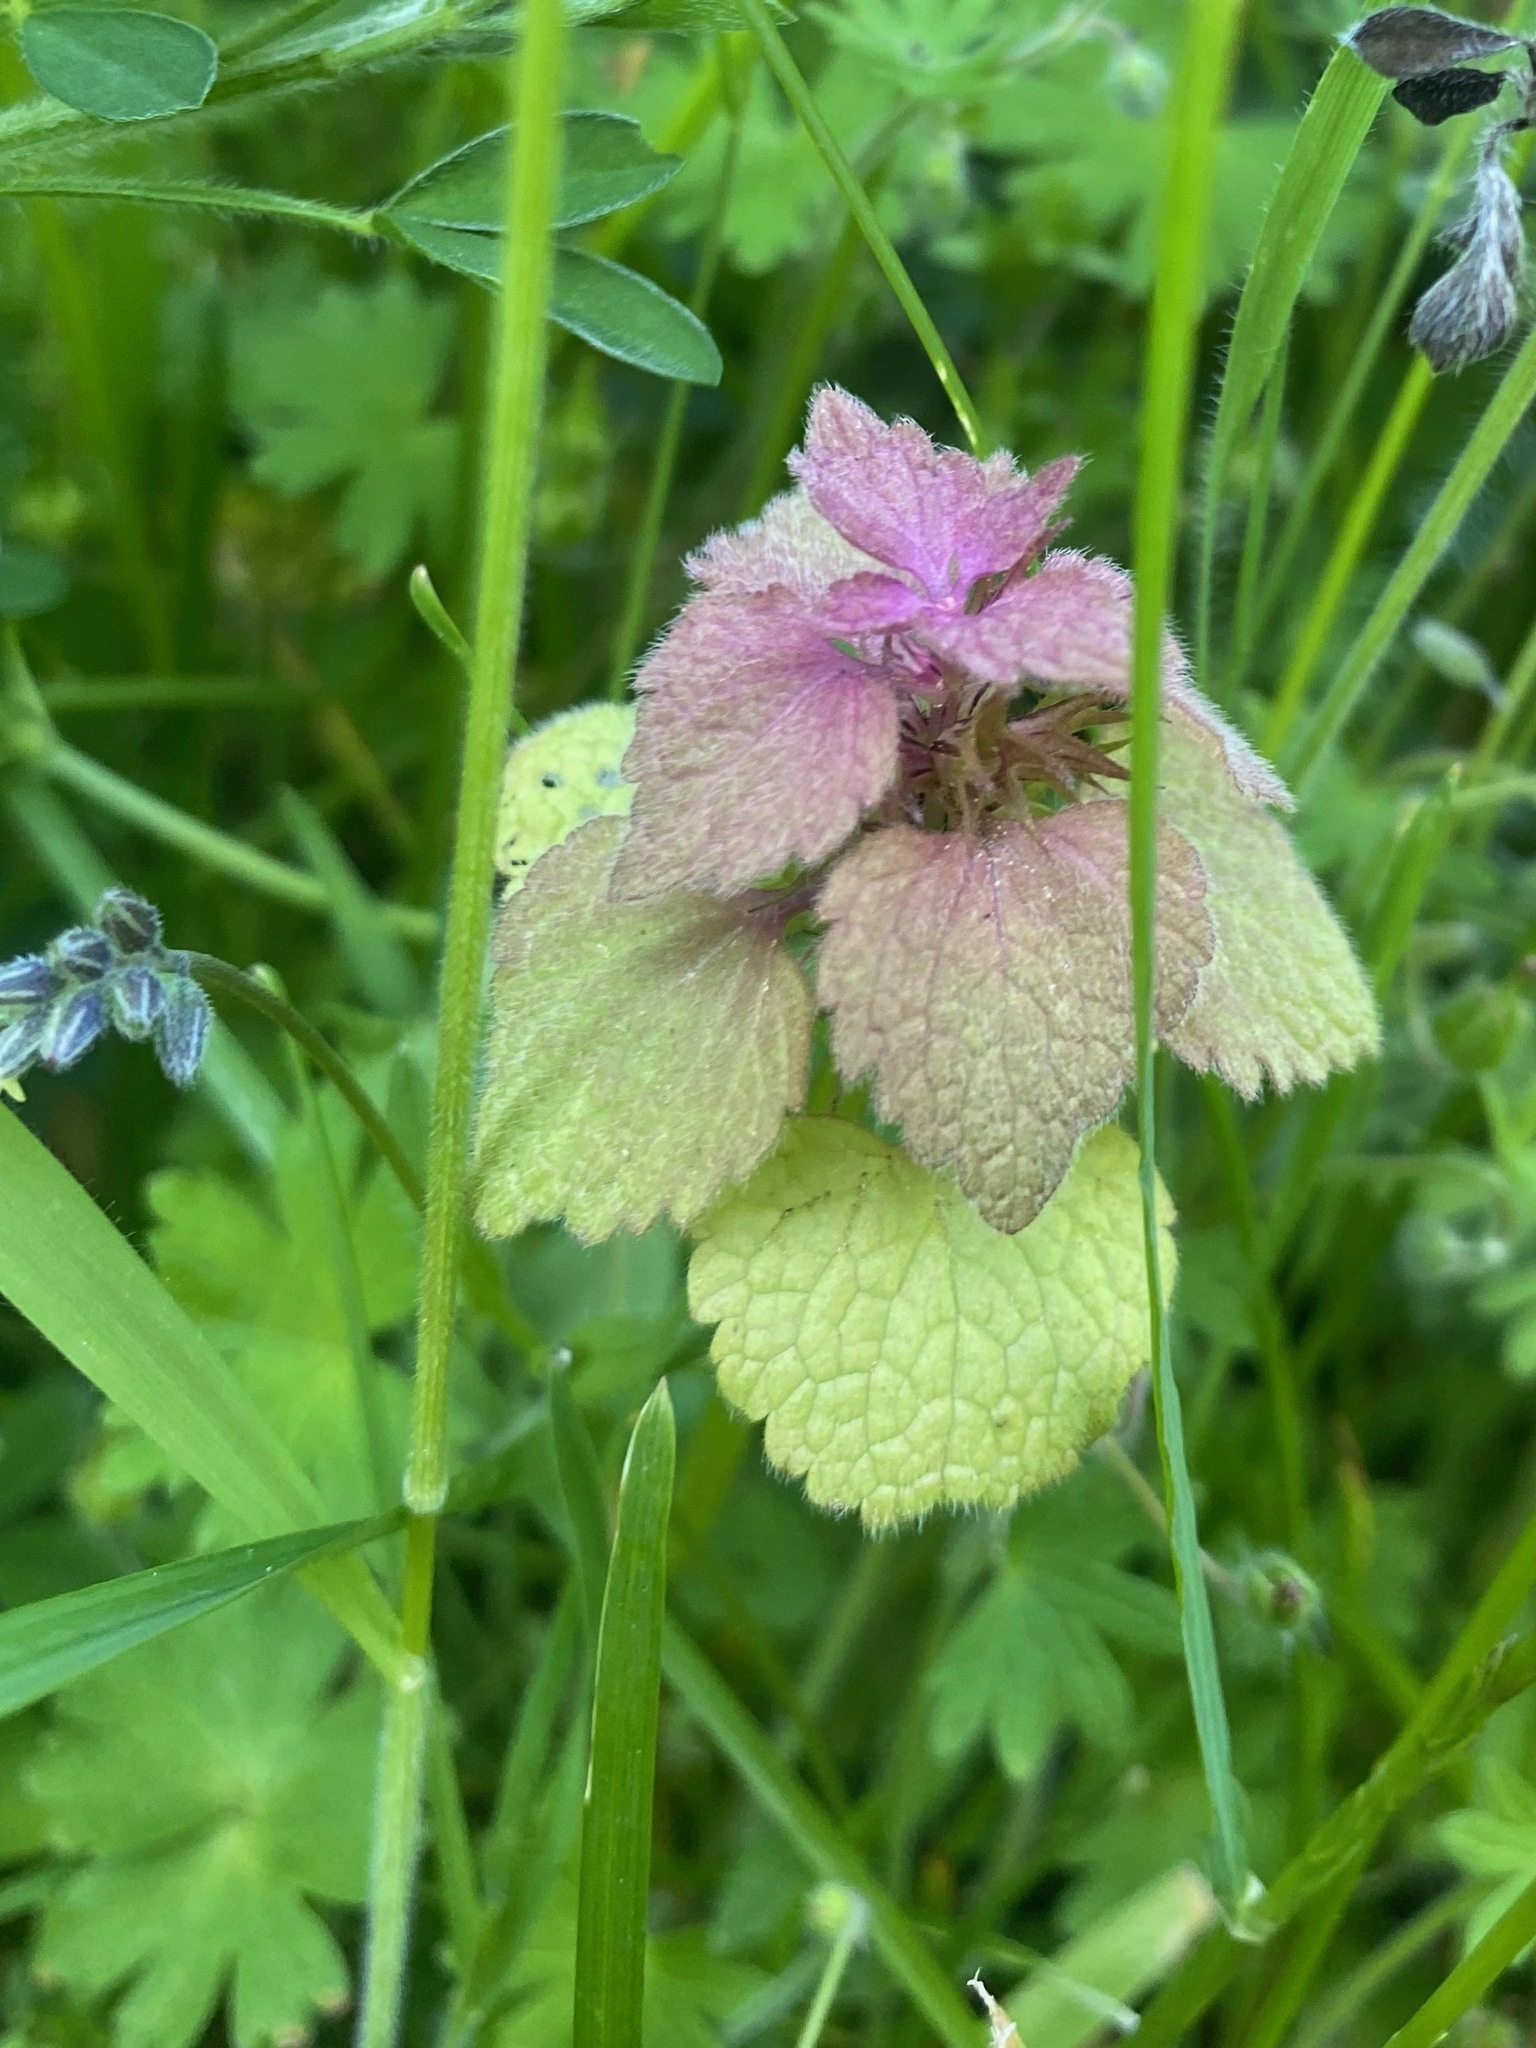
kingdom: Plantae
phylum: Tracheophyta
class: Magnoliopsida
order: Lamiales
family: Lamiaceae
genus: Lamium
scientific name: Lamium purpureum
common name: Red dead-nettle
